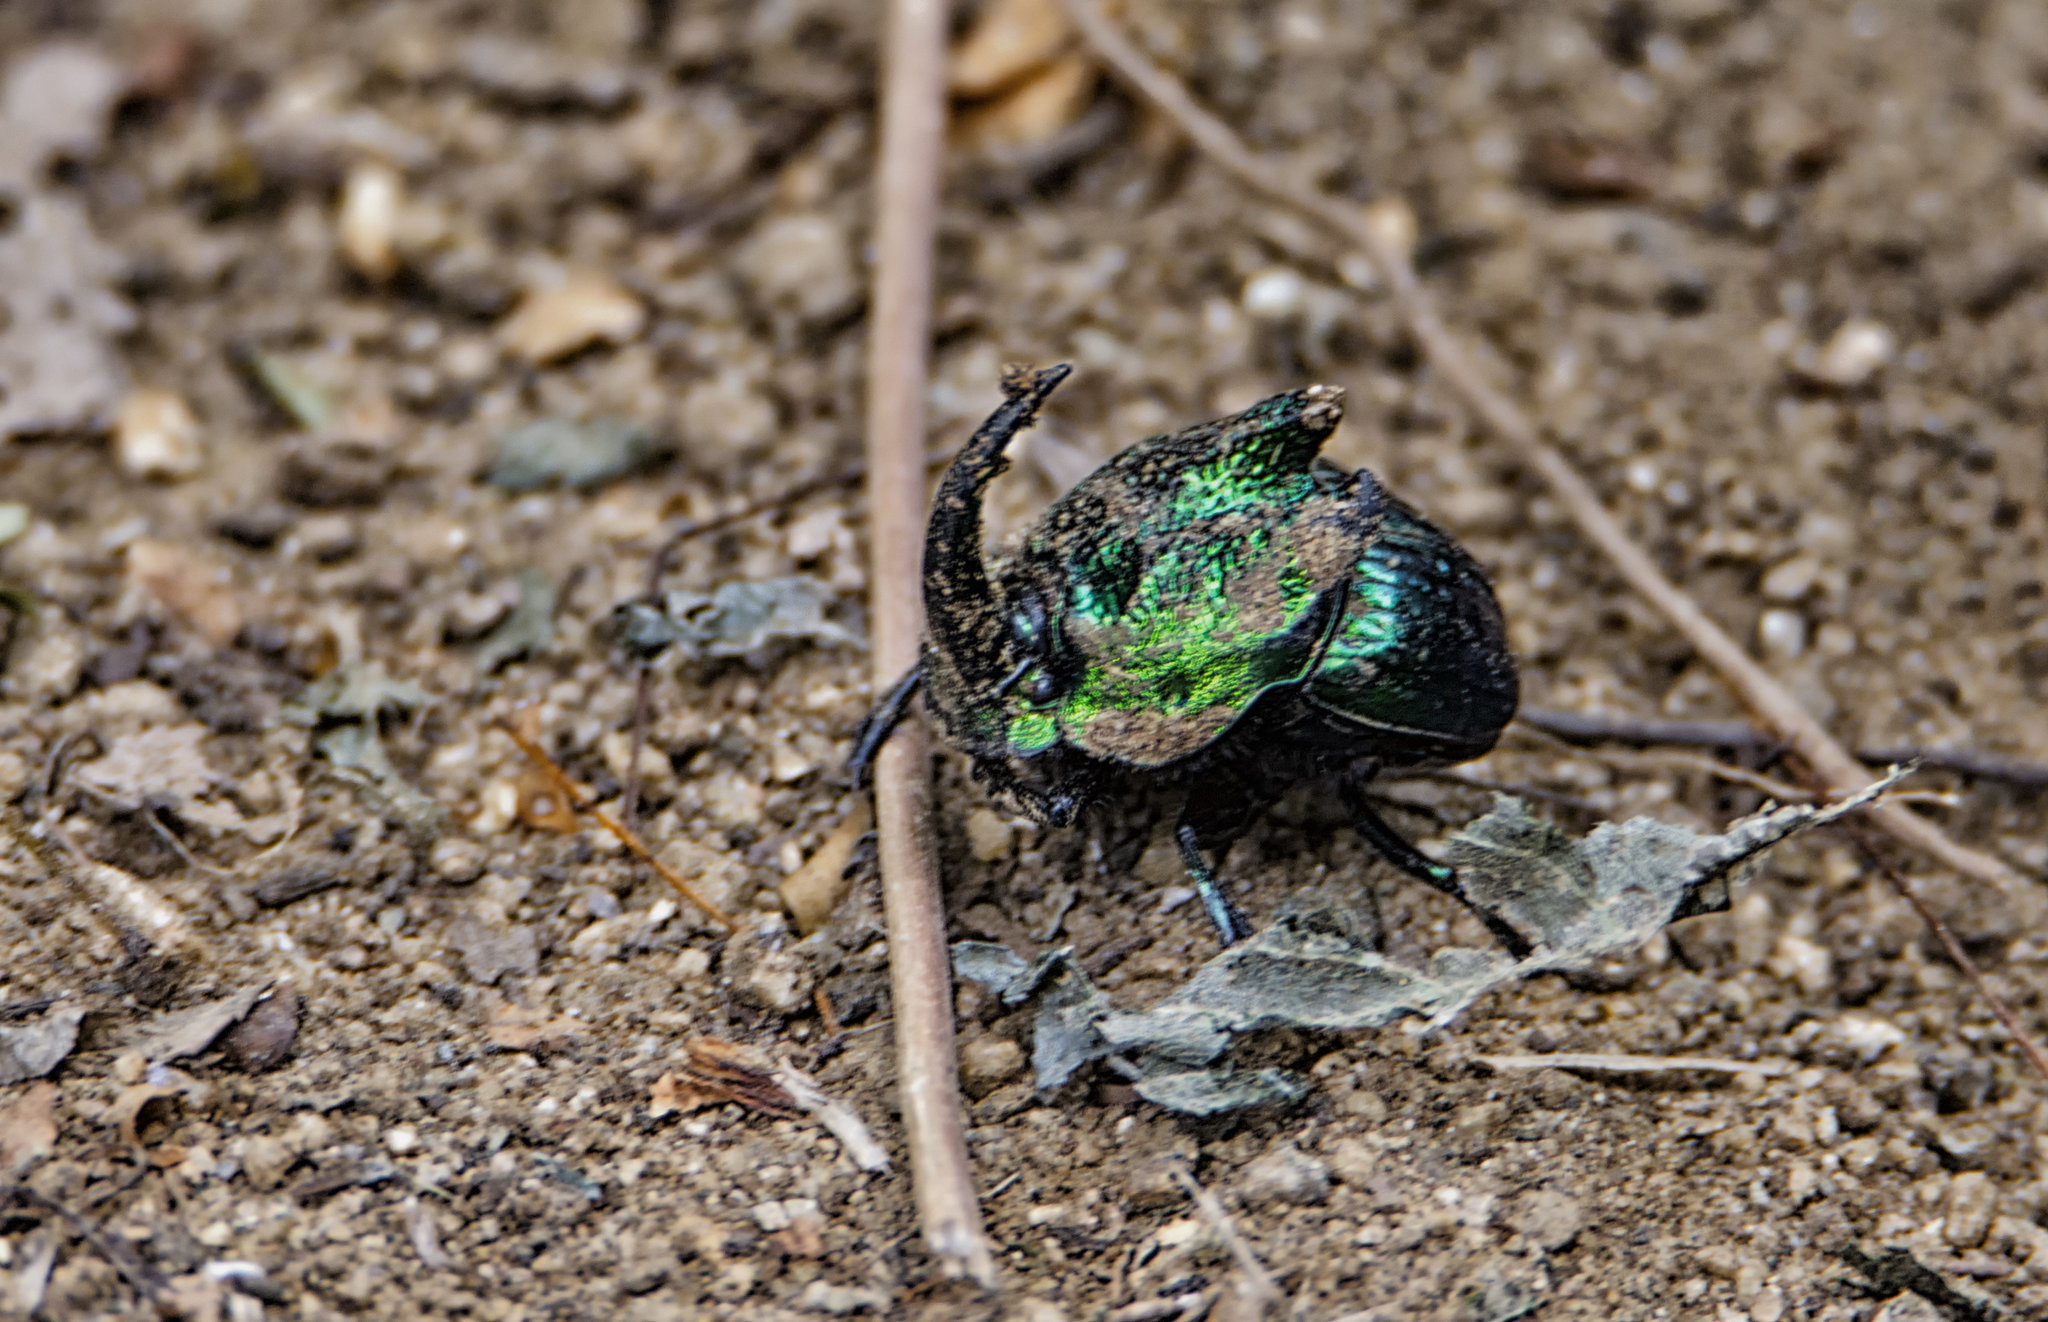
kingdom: Animalia
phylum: Arthropoda
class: Insecta
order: Coleoptera
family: Scarabaeidae
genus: Phanaeus
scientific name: Phanaeus obliquans
